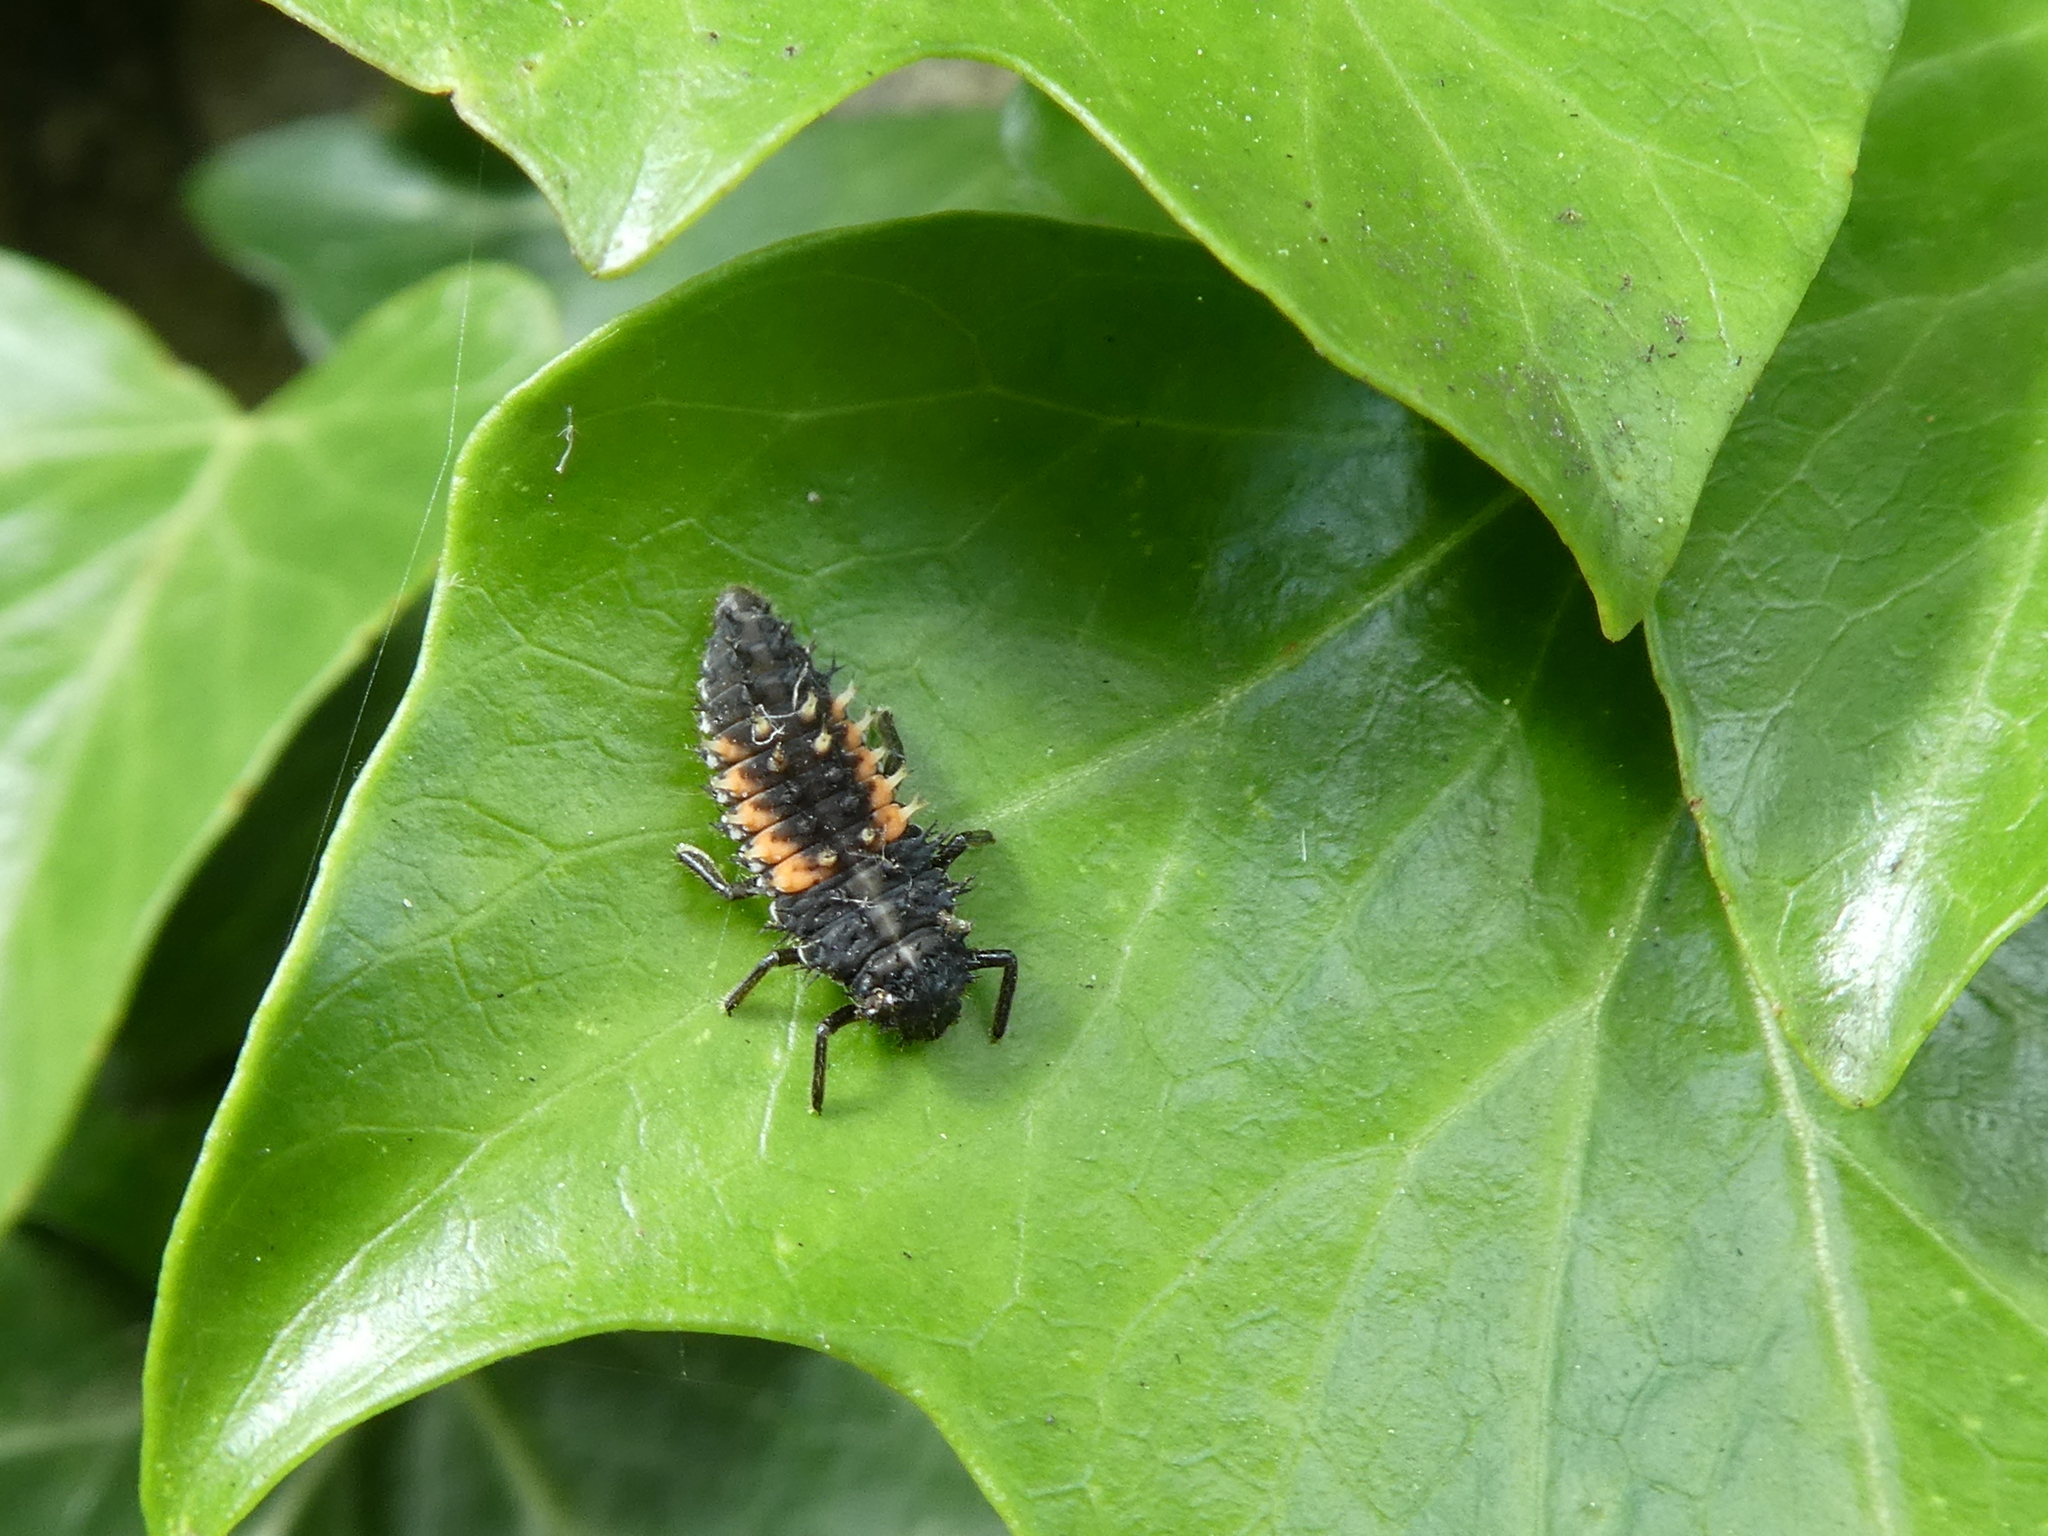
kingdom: Animalia
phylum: Arthropoda
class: Insecta
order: Coleoptera
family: Coccinellidae
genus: Harmonia
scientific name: Harmonia axyridis
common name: Harlequin ladybird
